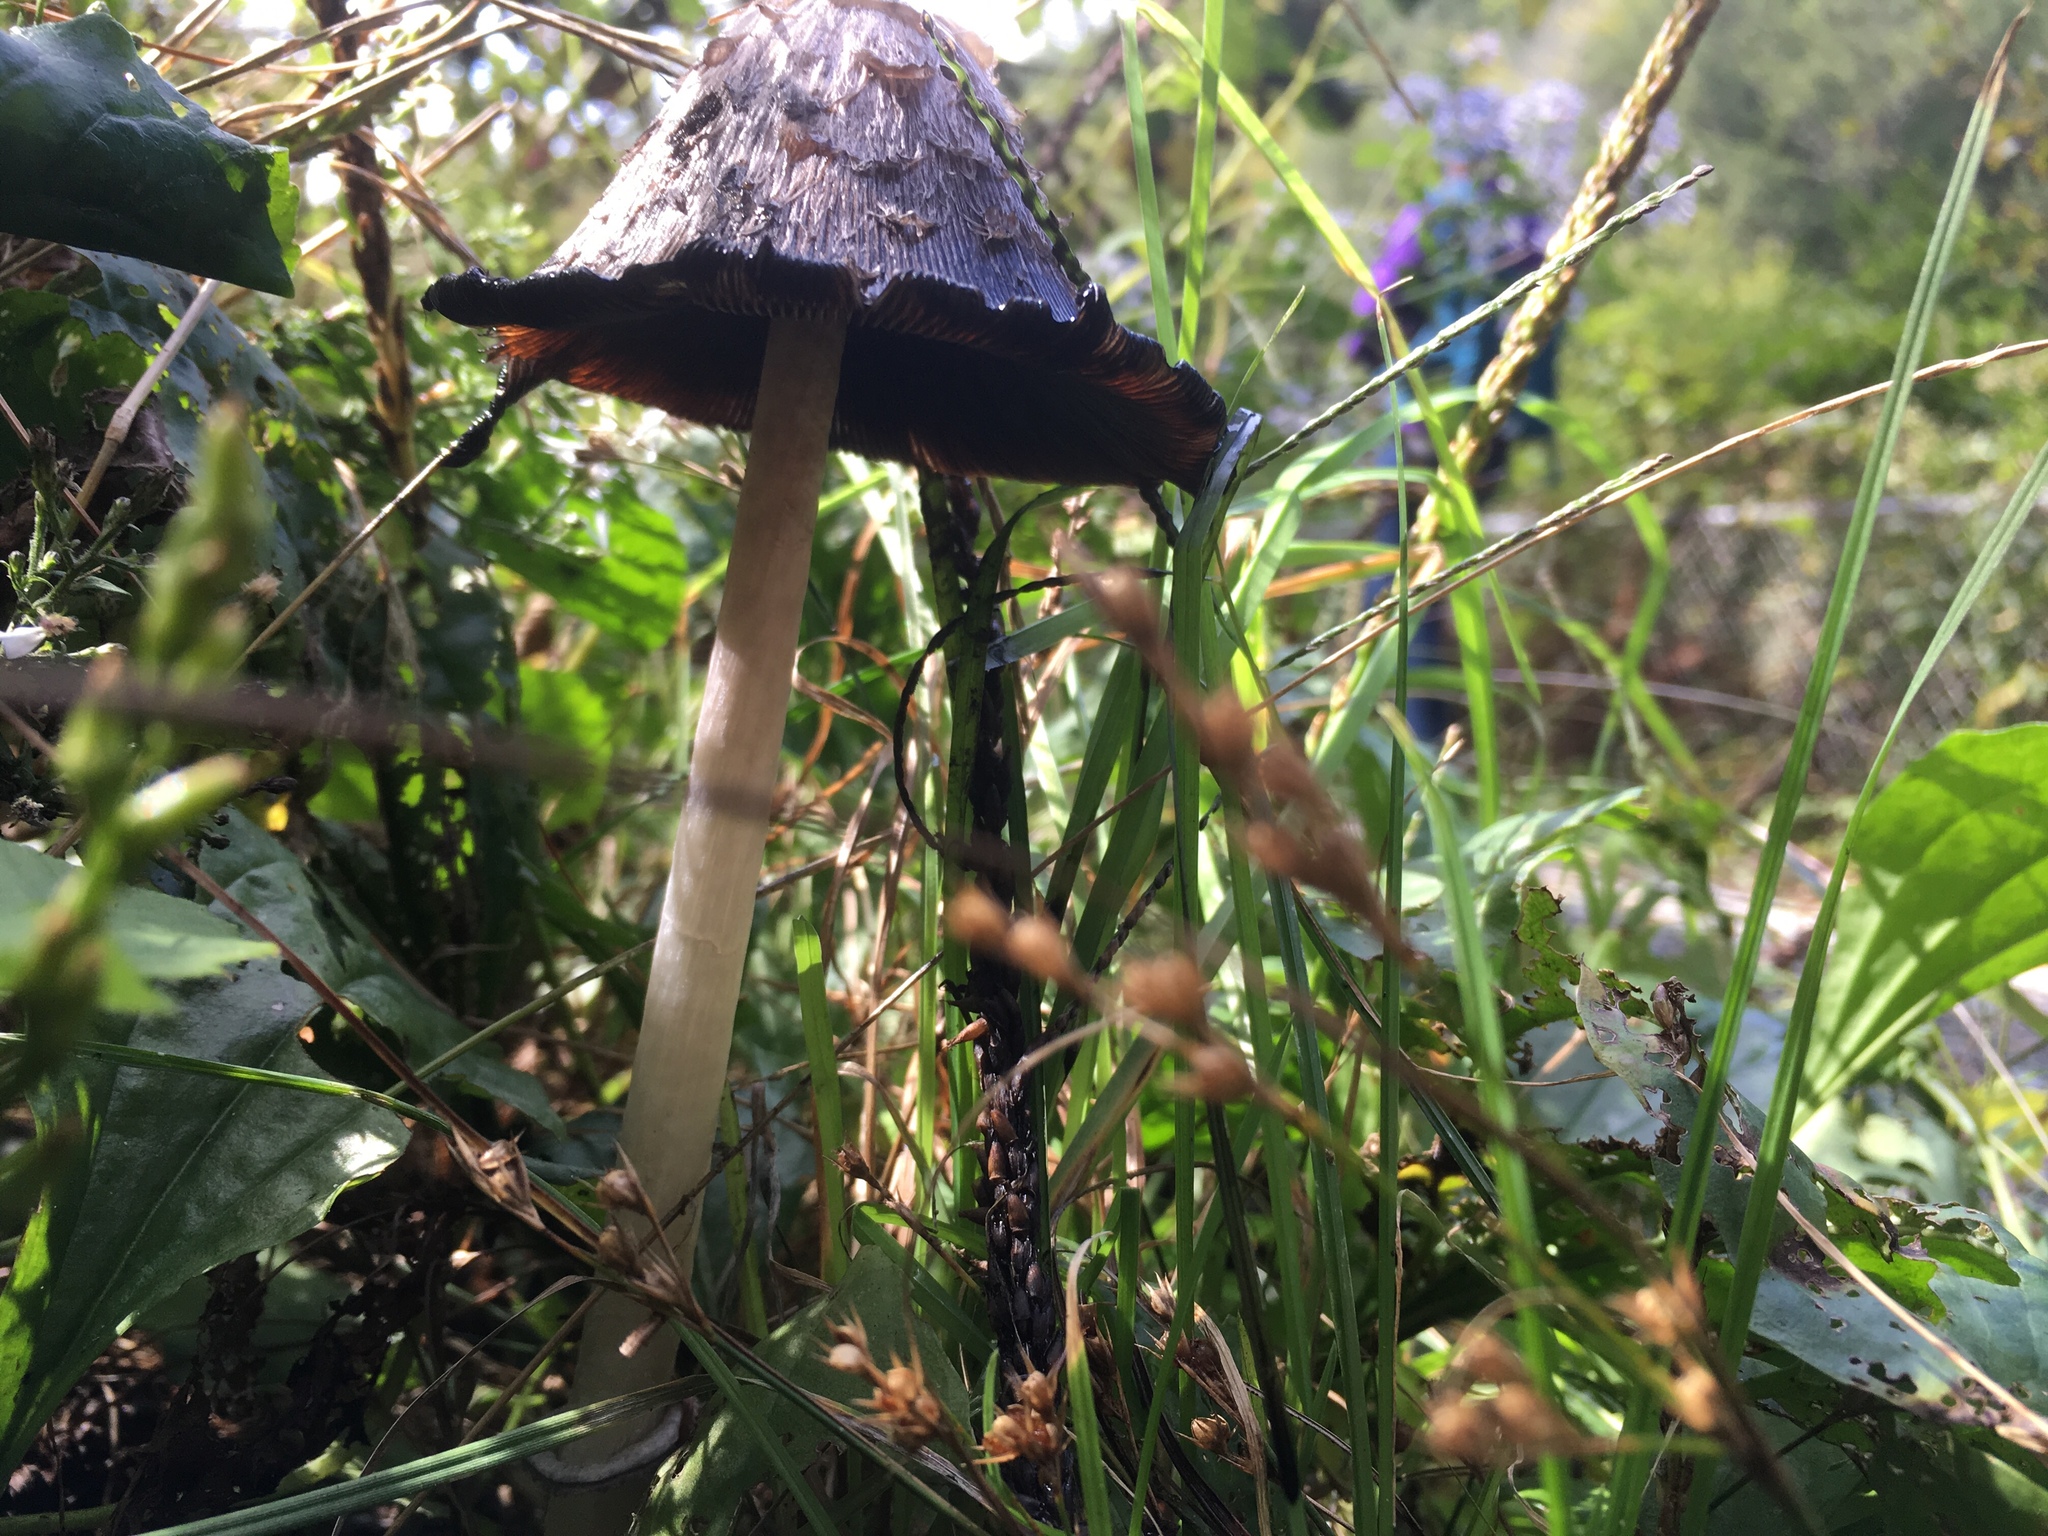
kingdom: Fungi
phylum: Basidiomycota
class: Agaricomycetes
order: Agaricales
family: Agaricaceae
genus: Coprinus
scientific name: Coprinus comatus
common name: Lawyer's wig
